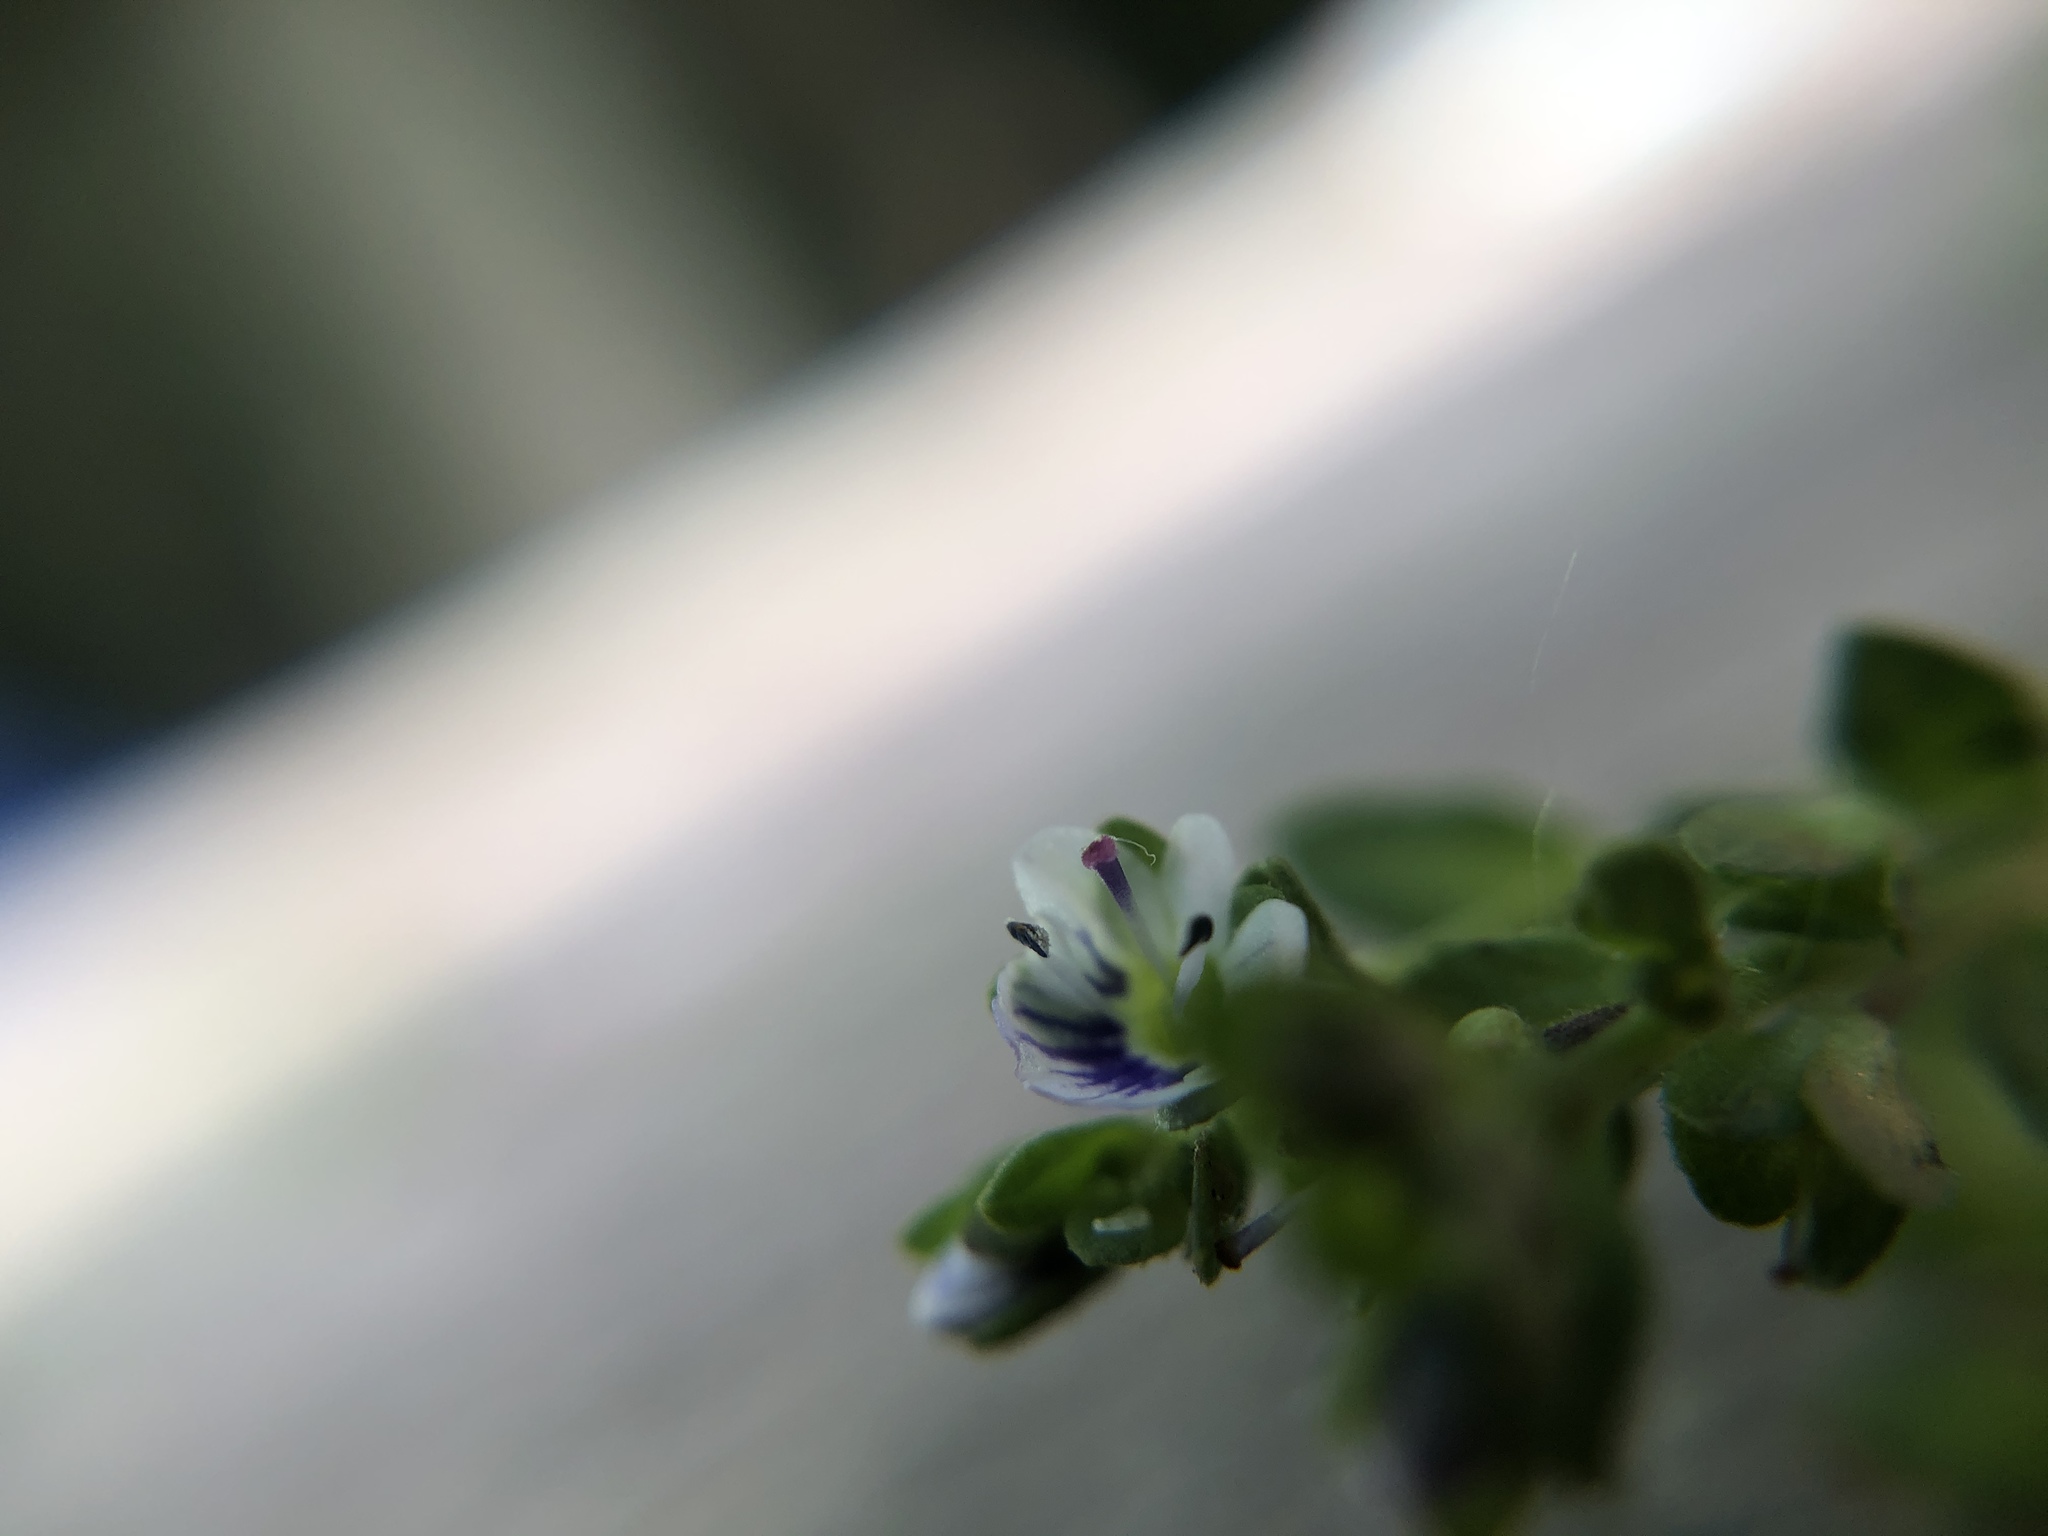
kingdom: Plantae
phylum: Tracheophyta
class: Magnoliopsida
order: Lamiales
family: Plantaginaceae
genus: Veronica
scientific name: Veronica serpyllifolia
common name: Thyme-leaved speedwell
